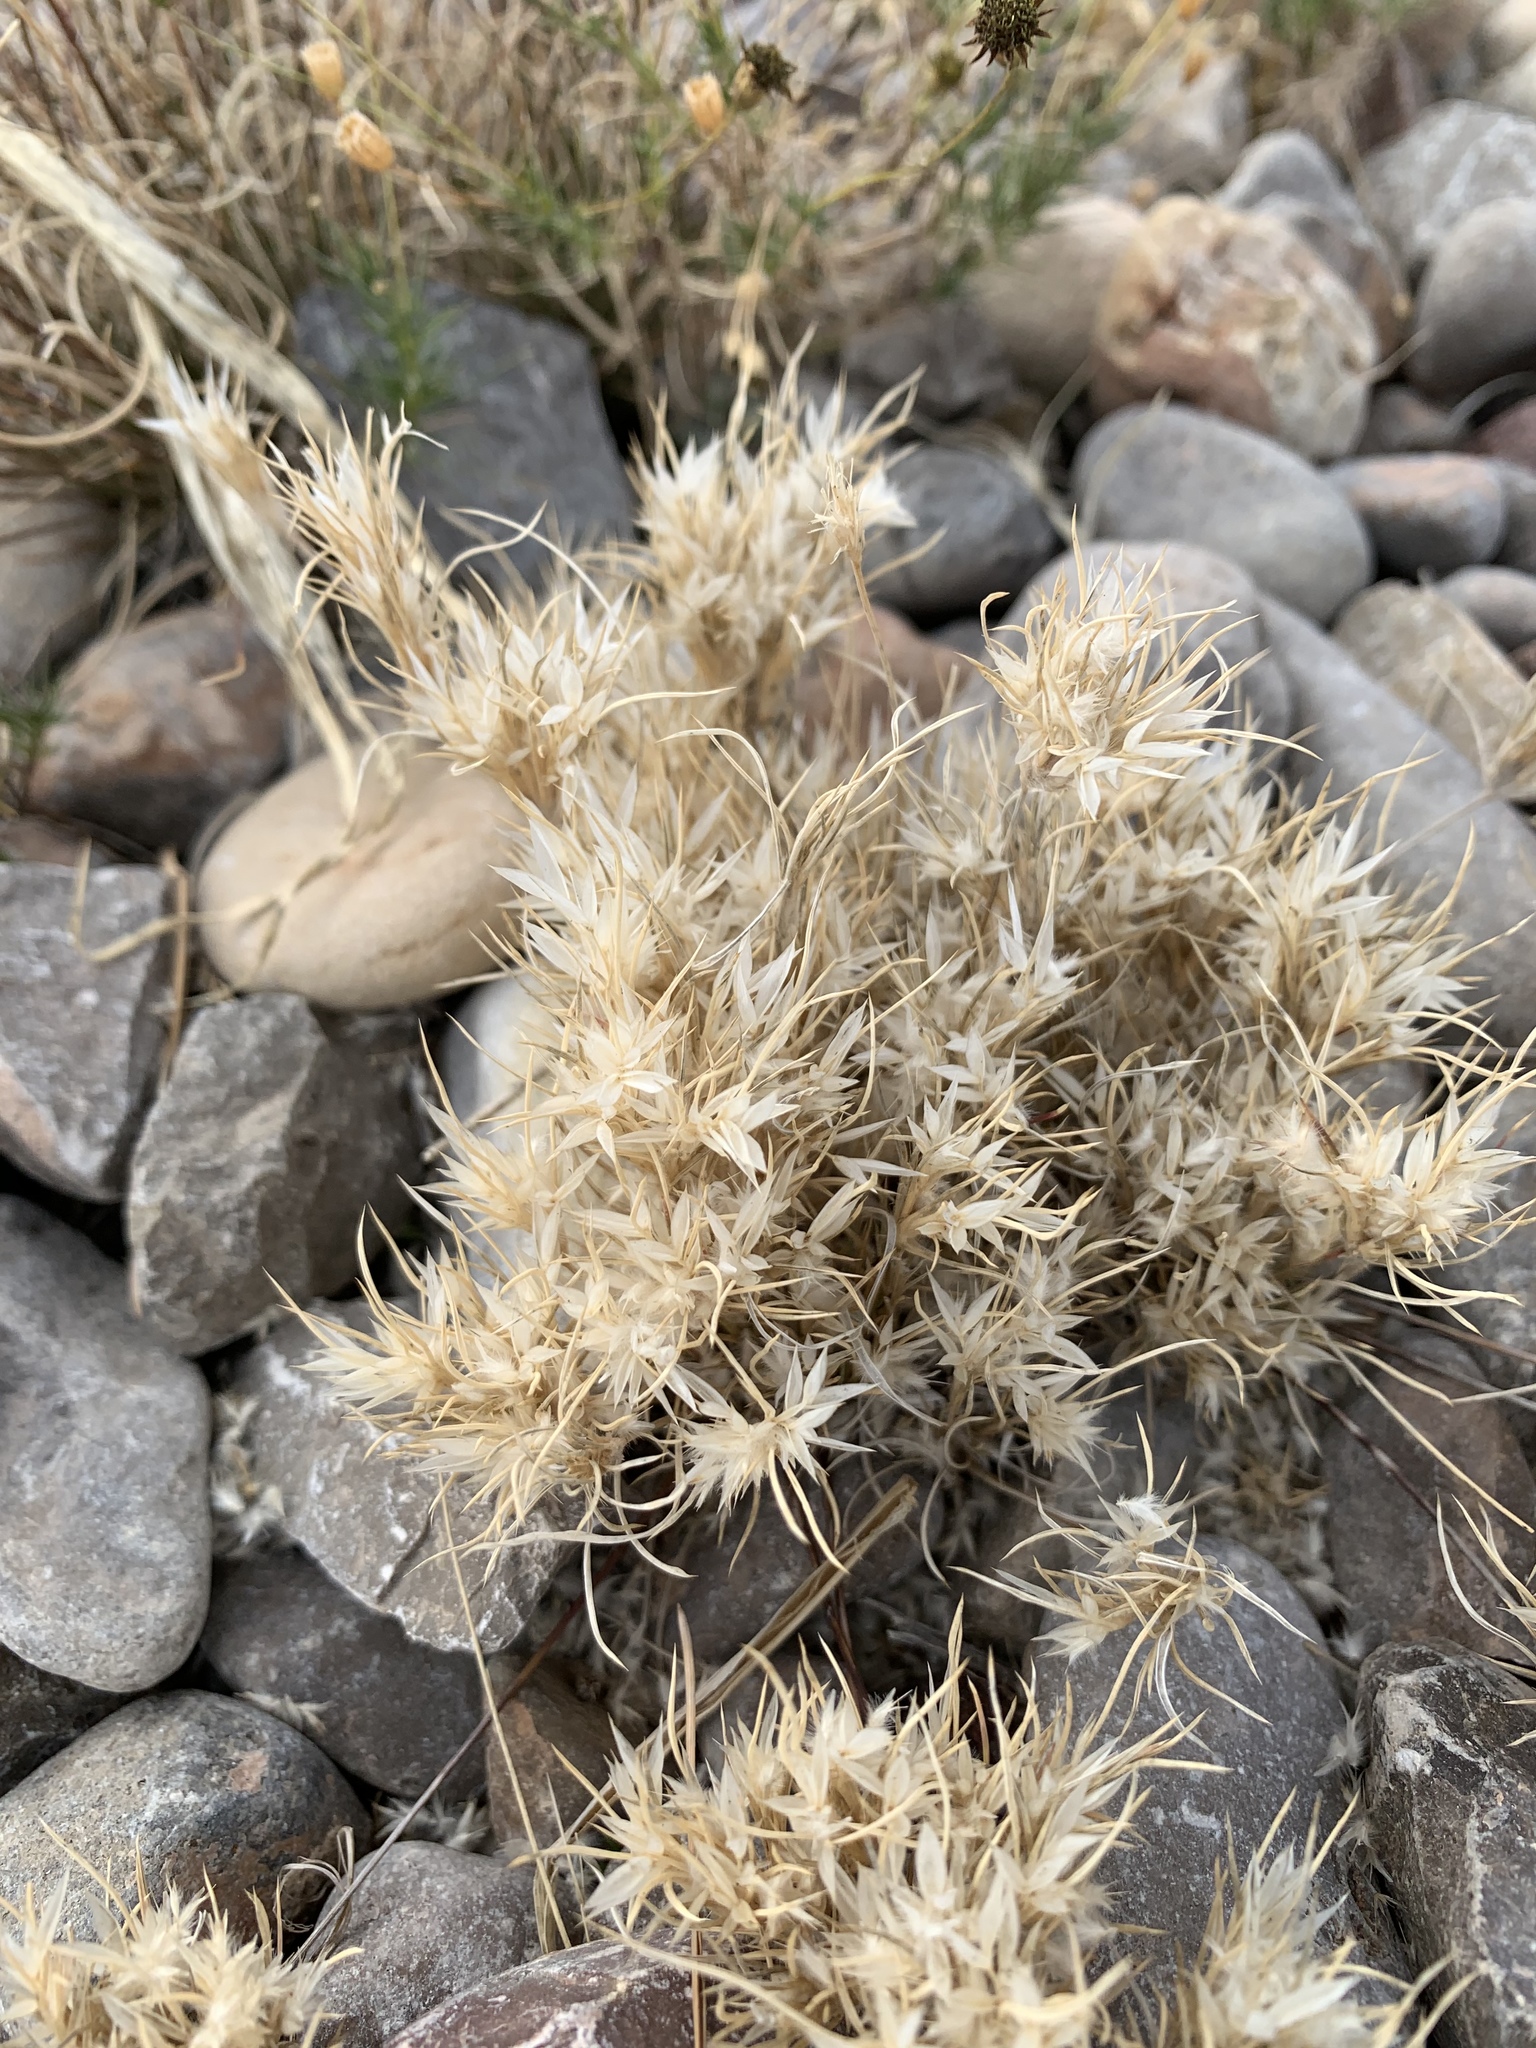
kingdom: Plantae
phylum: Tracheophyta
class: Liliopsida
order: Poales
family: Poaceae
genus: Dasyochloa
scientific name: Dasyochloa pulchella
